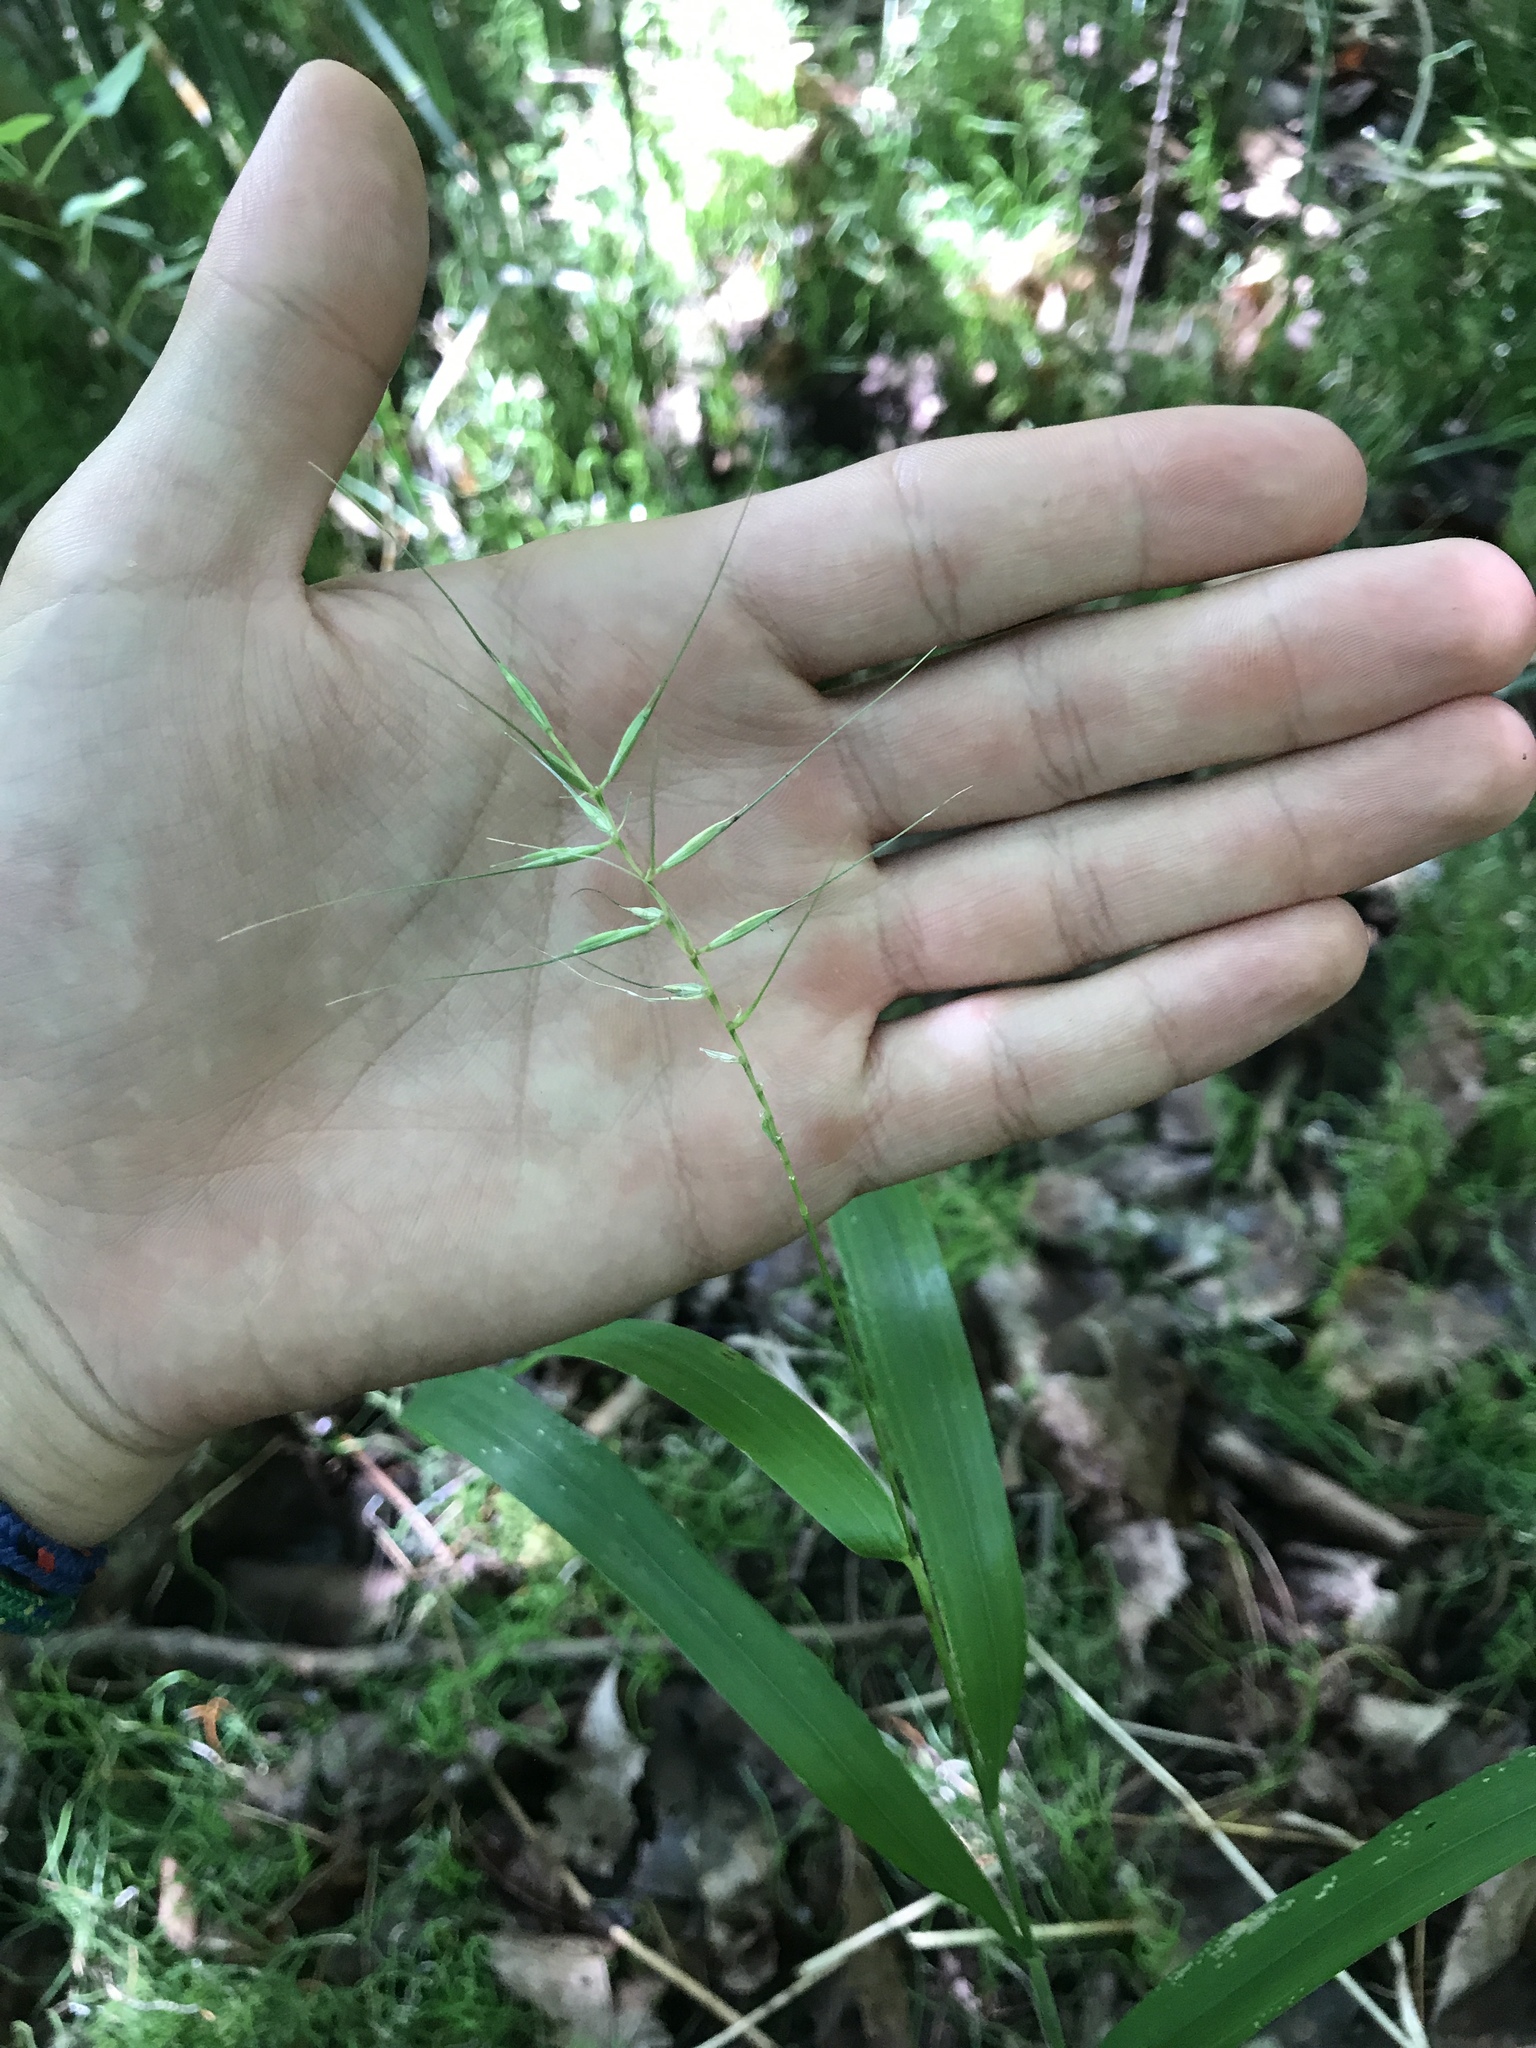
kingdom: Plantae
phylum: Tracheophyta
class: Liliopsida
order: Poales
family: Poaceae
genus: Elymus
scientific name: Elymus hystrix
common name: Bottlebrush grass
